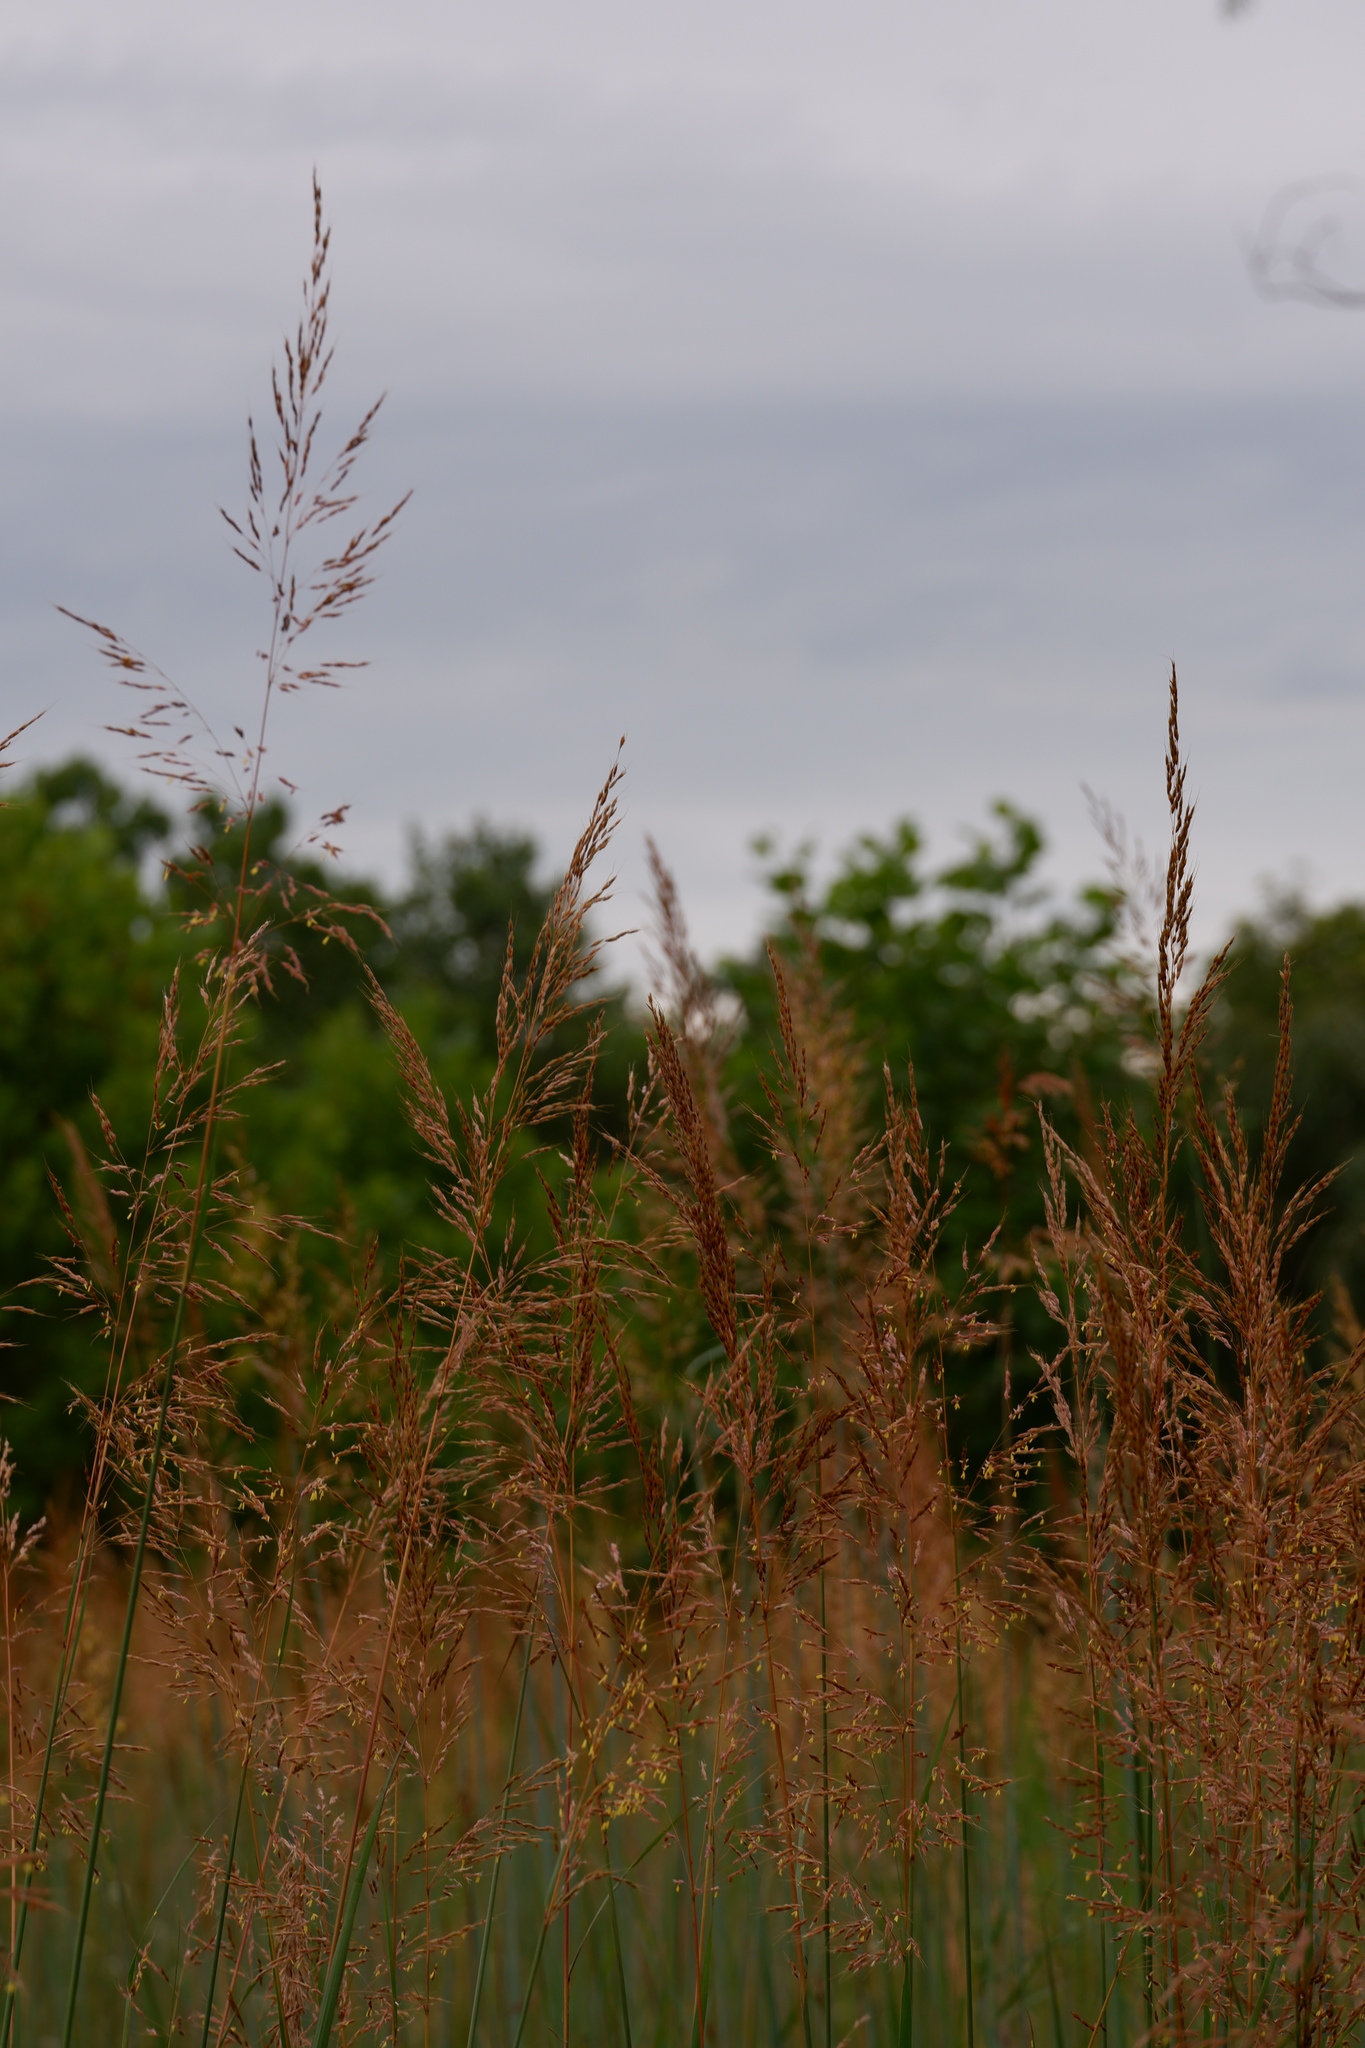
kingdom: Plantae
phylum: Tracheophyta
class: Liliopsida
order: Poales
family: Poaceae
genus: Sorghastrum
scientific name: Sorghastrum nutans
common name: Indian grass
